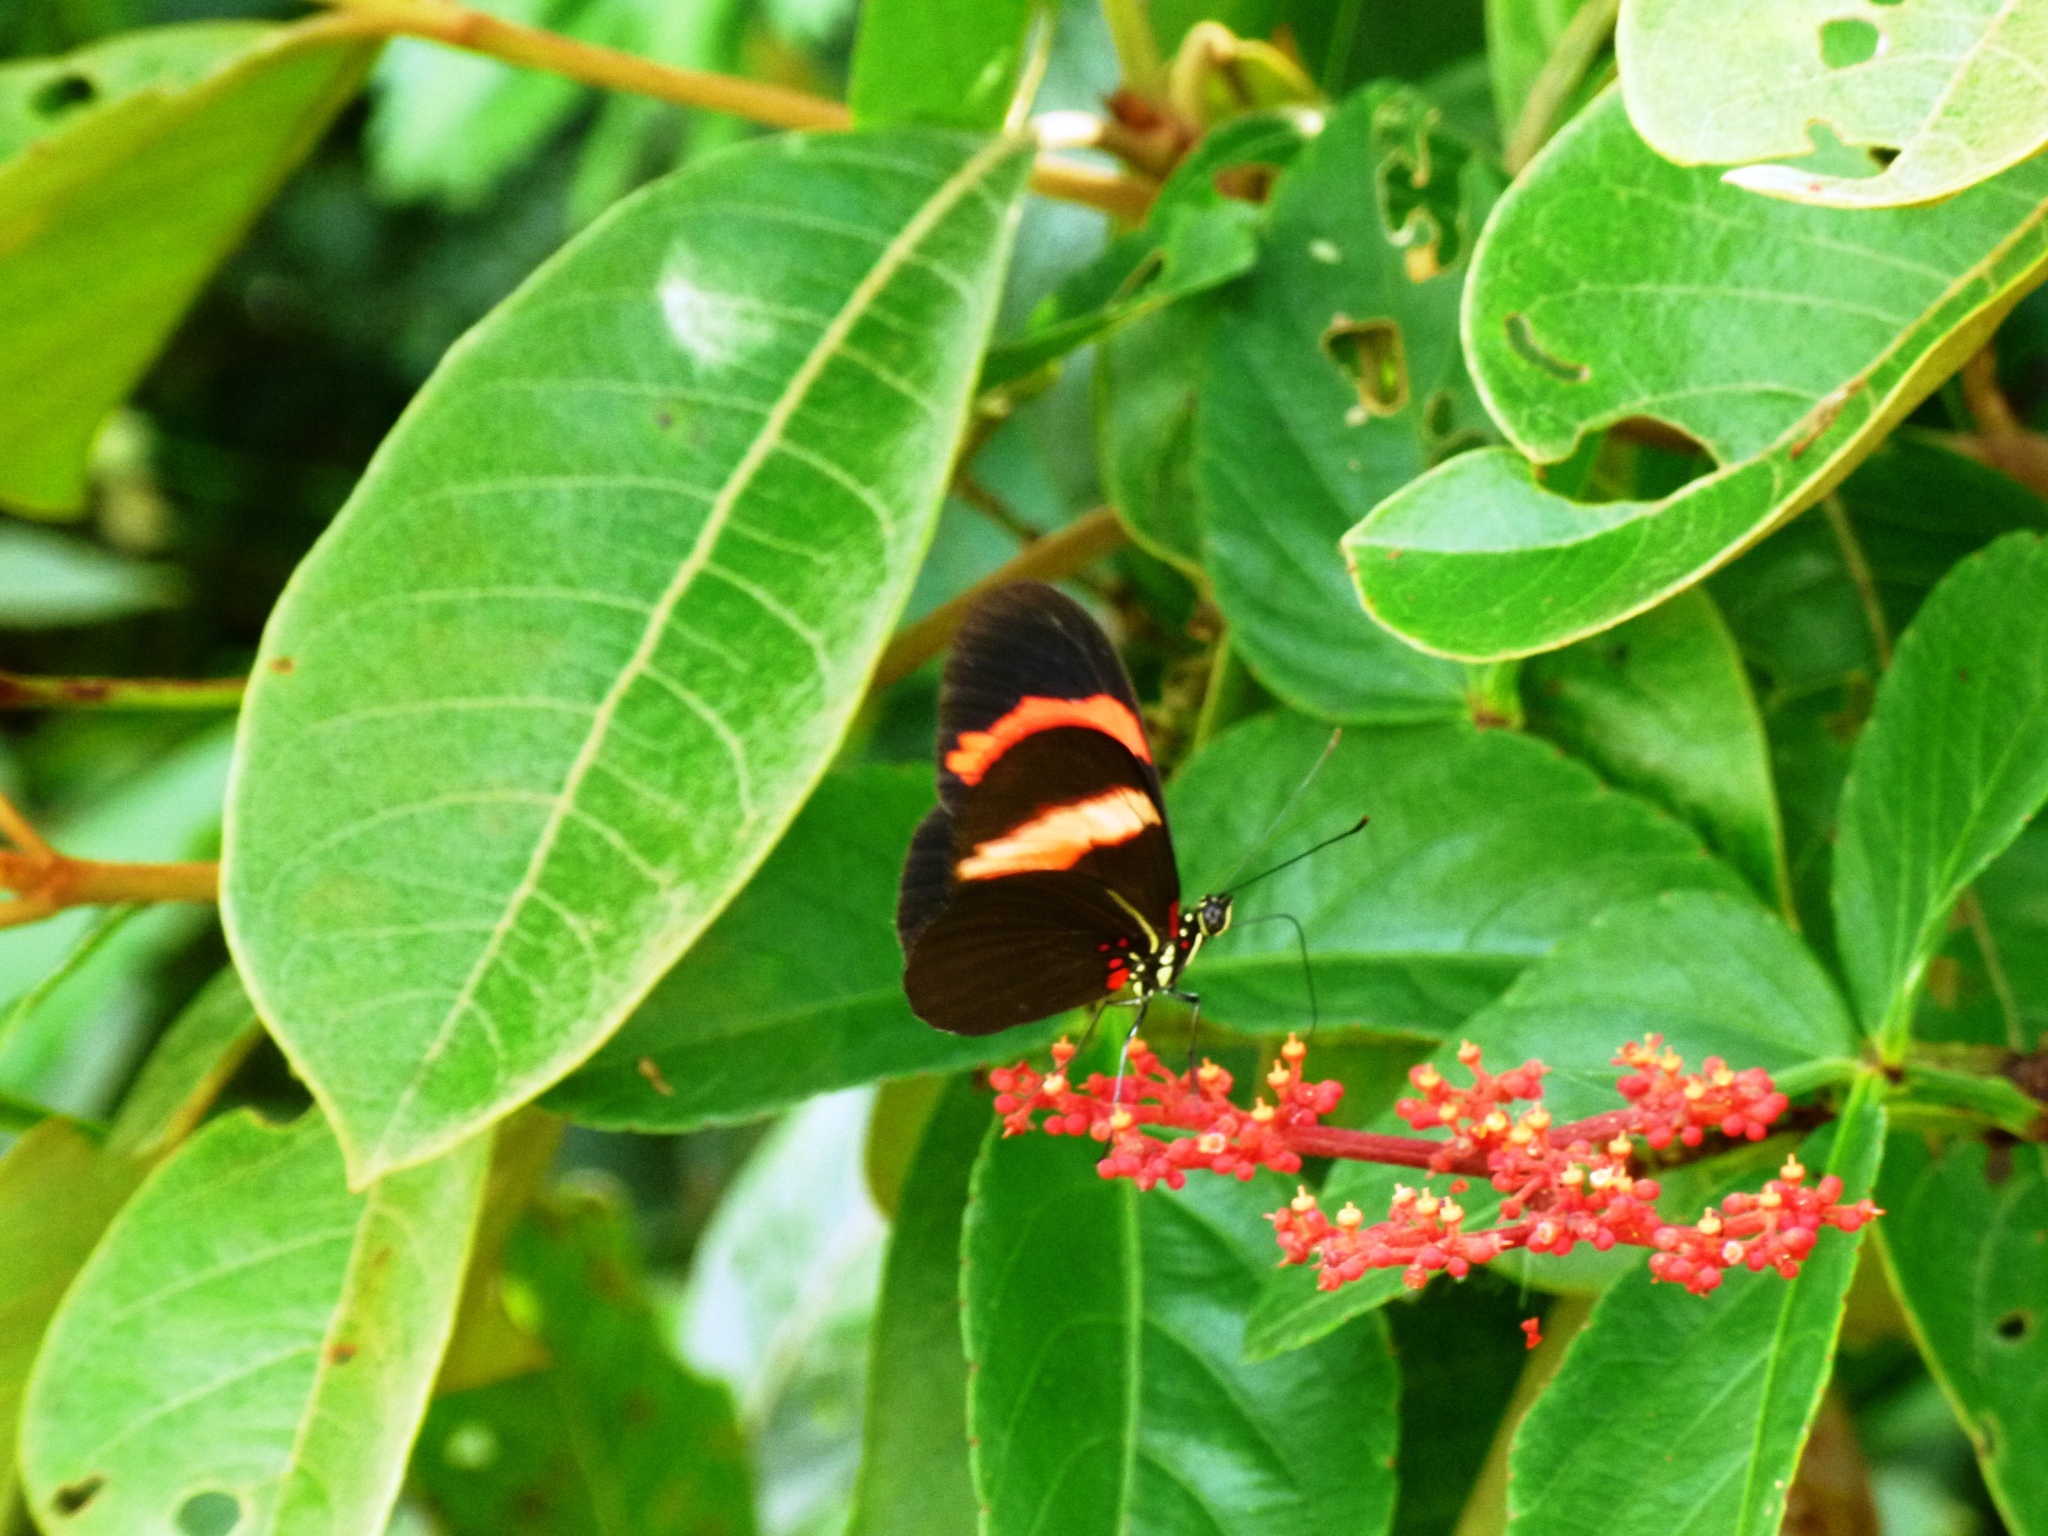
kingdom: Animalia
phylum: Arthropoda
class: Insecta
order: Lepidoptera
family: Nymphalidae
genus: Heliconius
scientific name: Heliconius erato
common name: Common patch longwing
